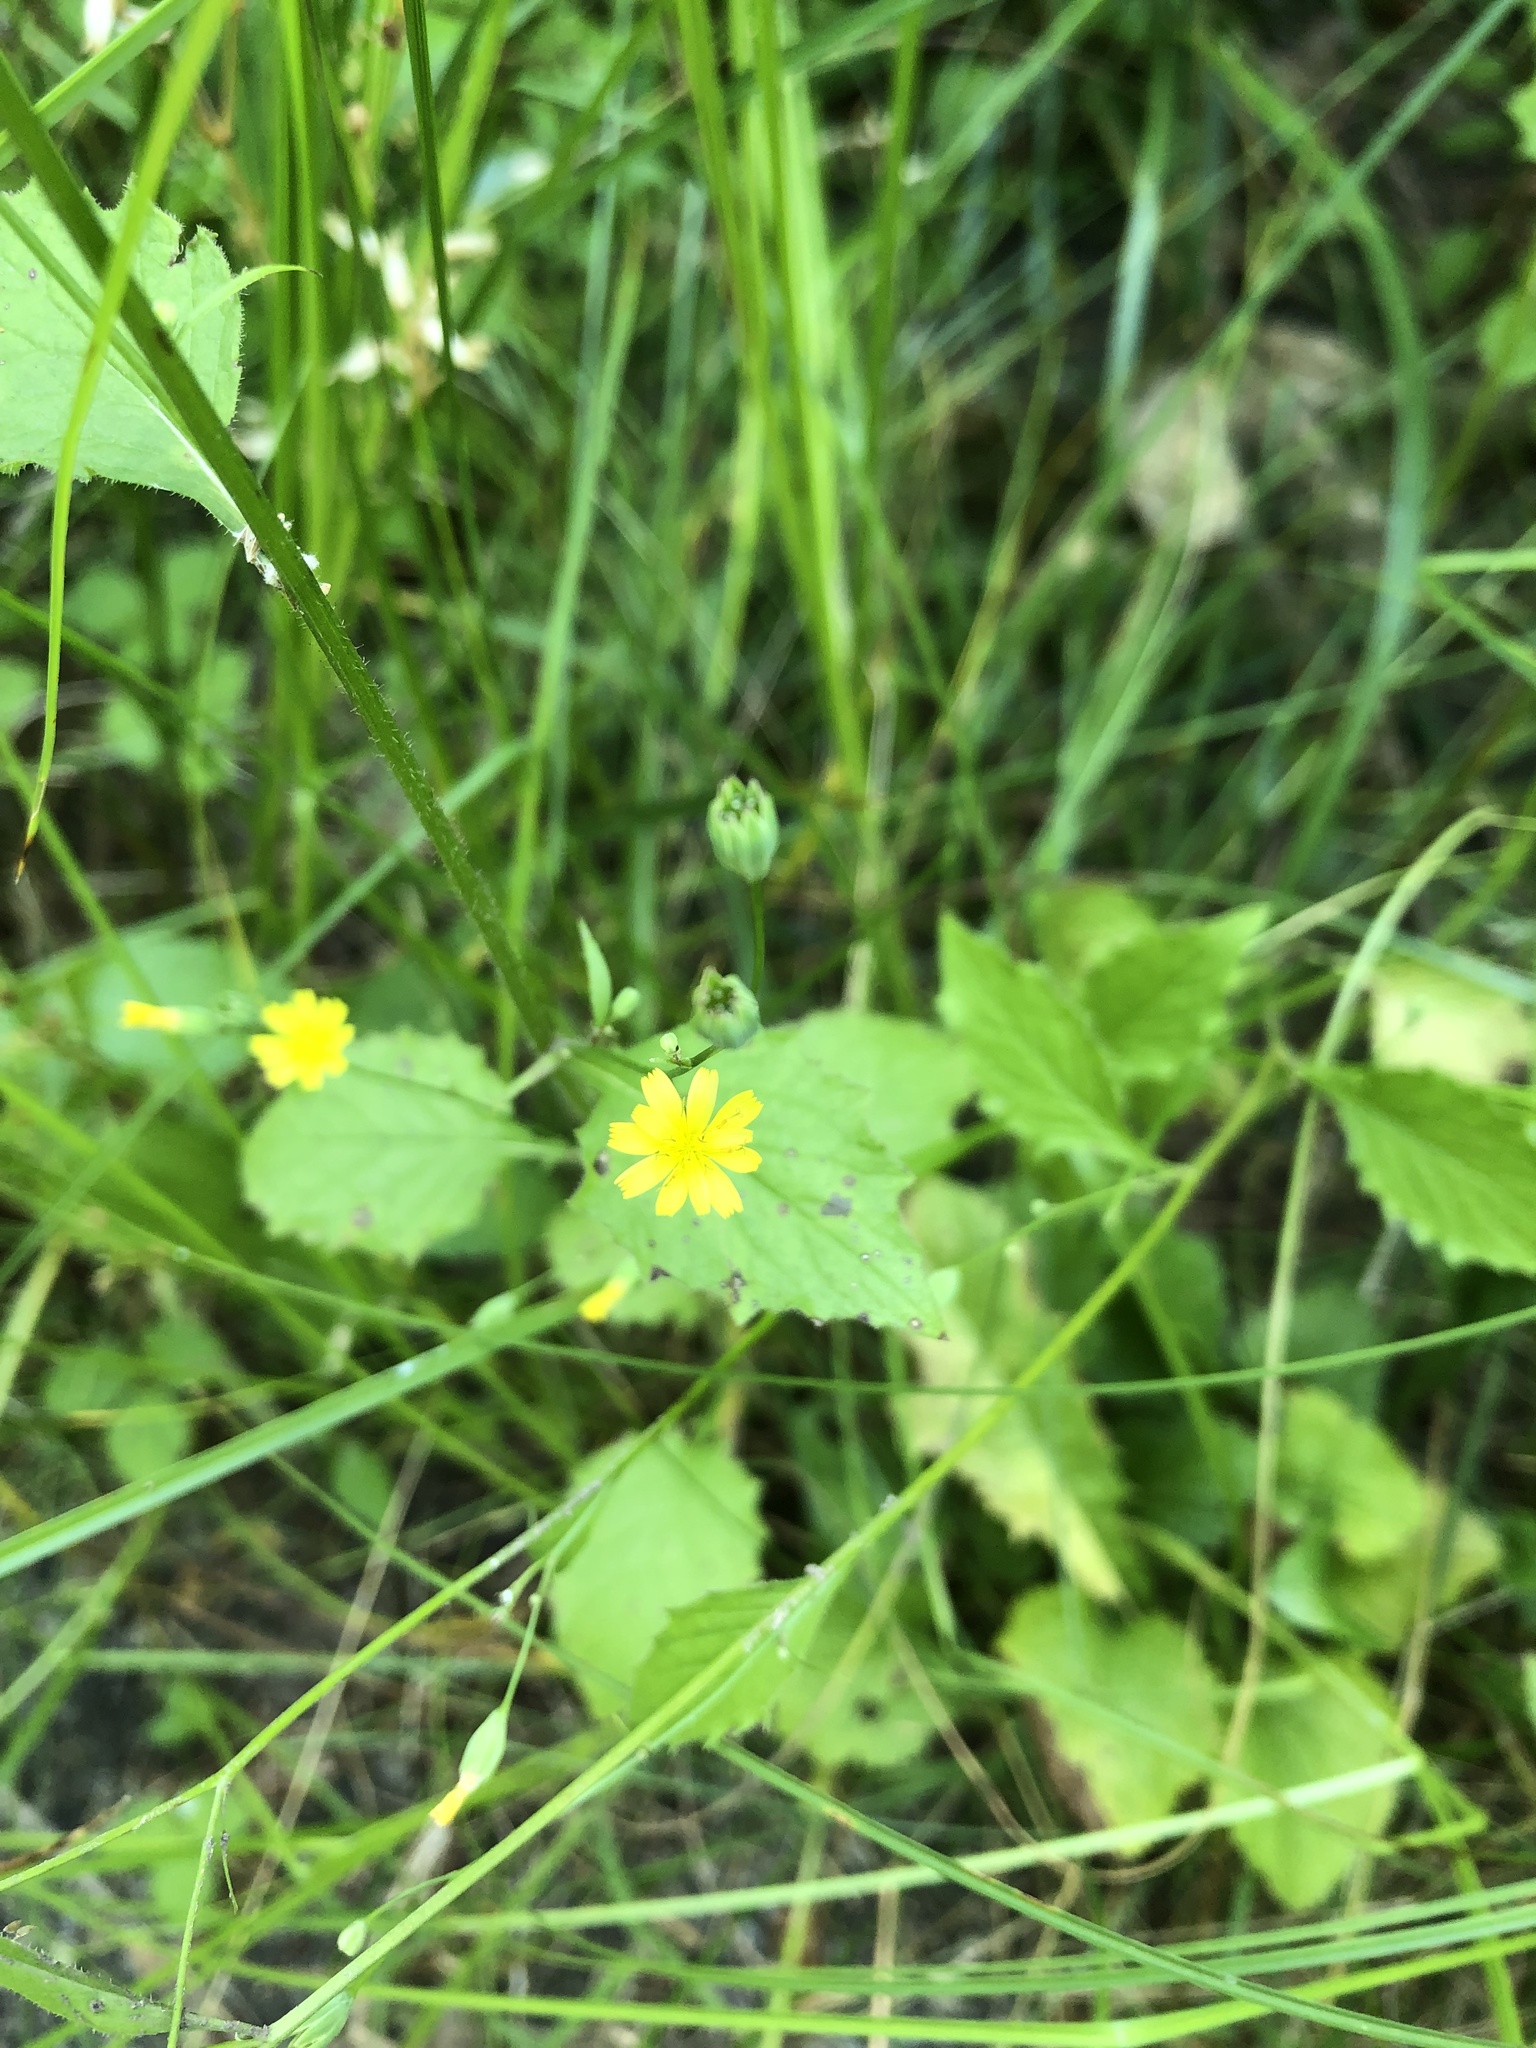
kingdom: Plantae
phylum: Tracheophyta
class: Magnoliopsida
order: Asterales
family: Asteraceae
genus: Lapsana
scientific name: Lapsana communis
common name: Nipplewort
